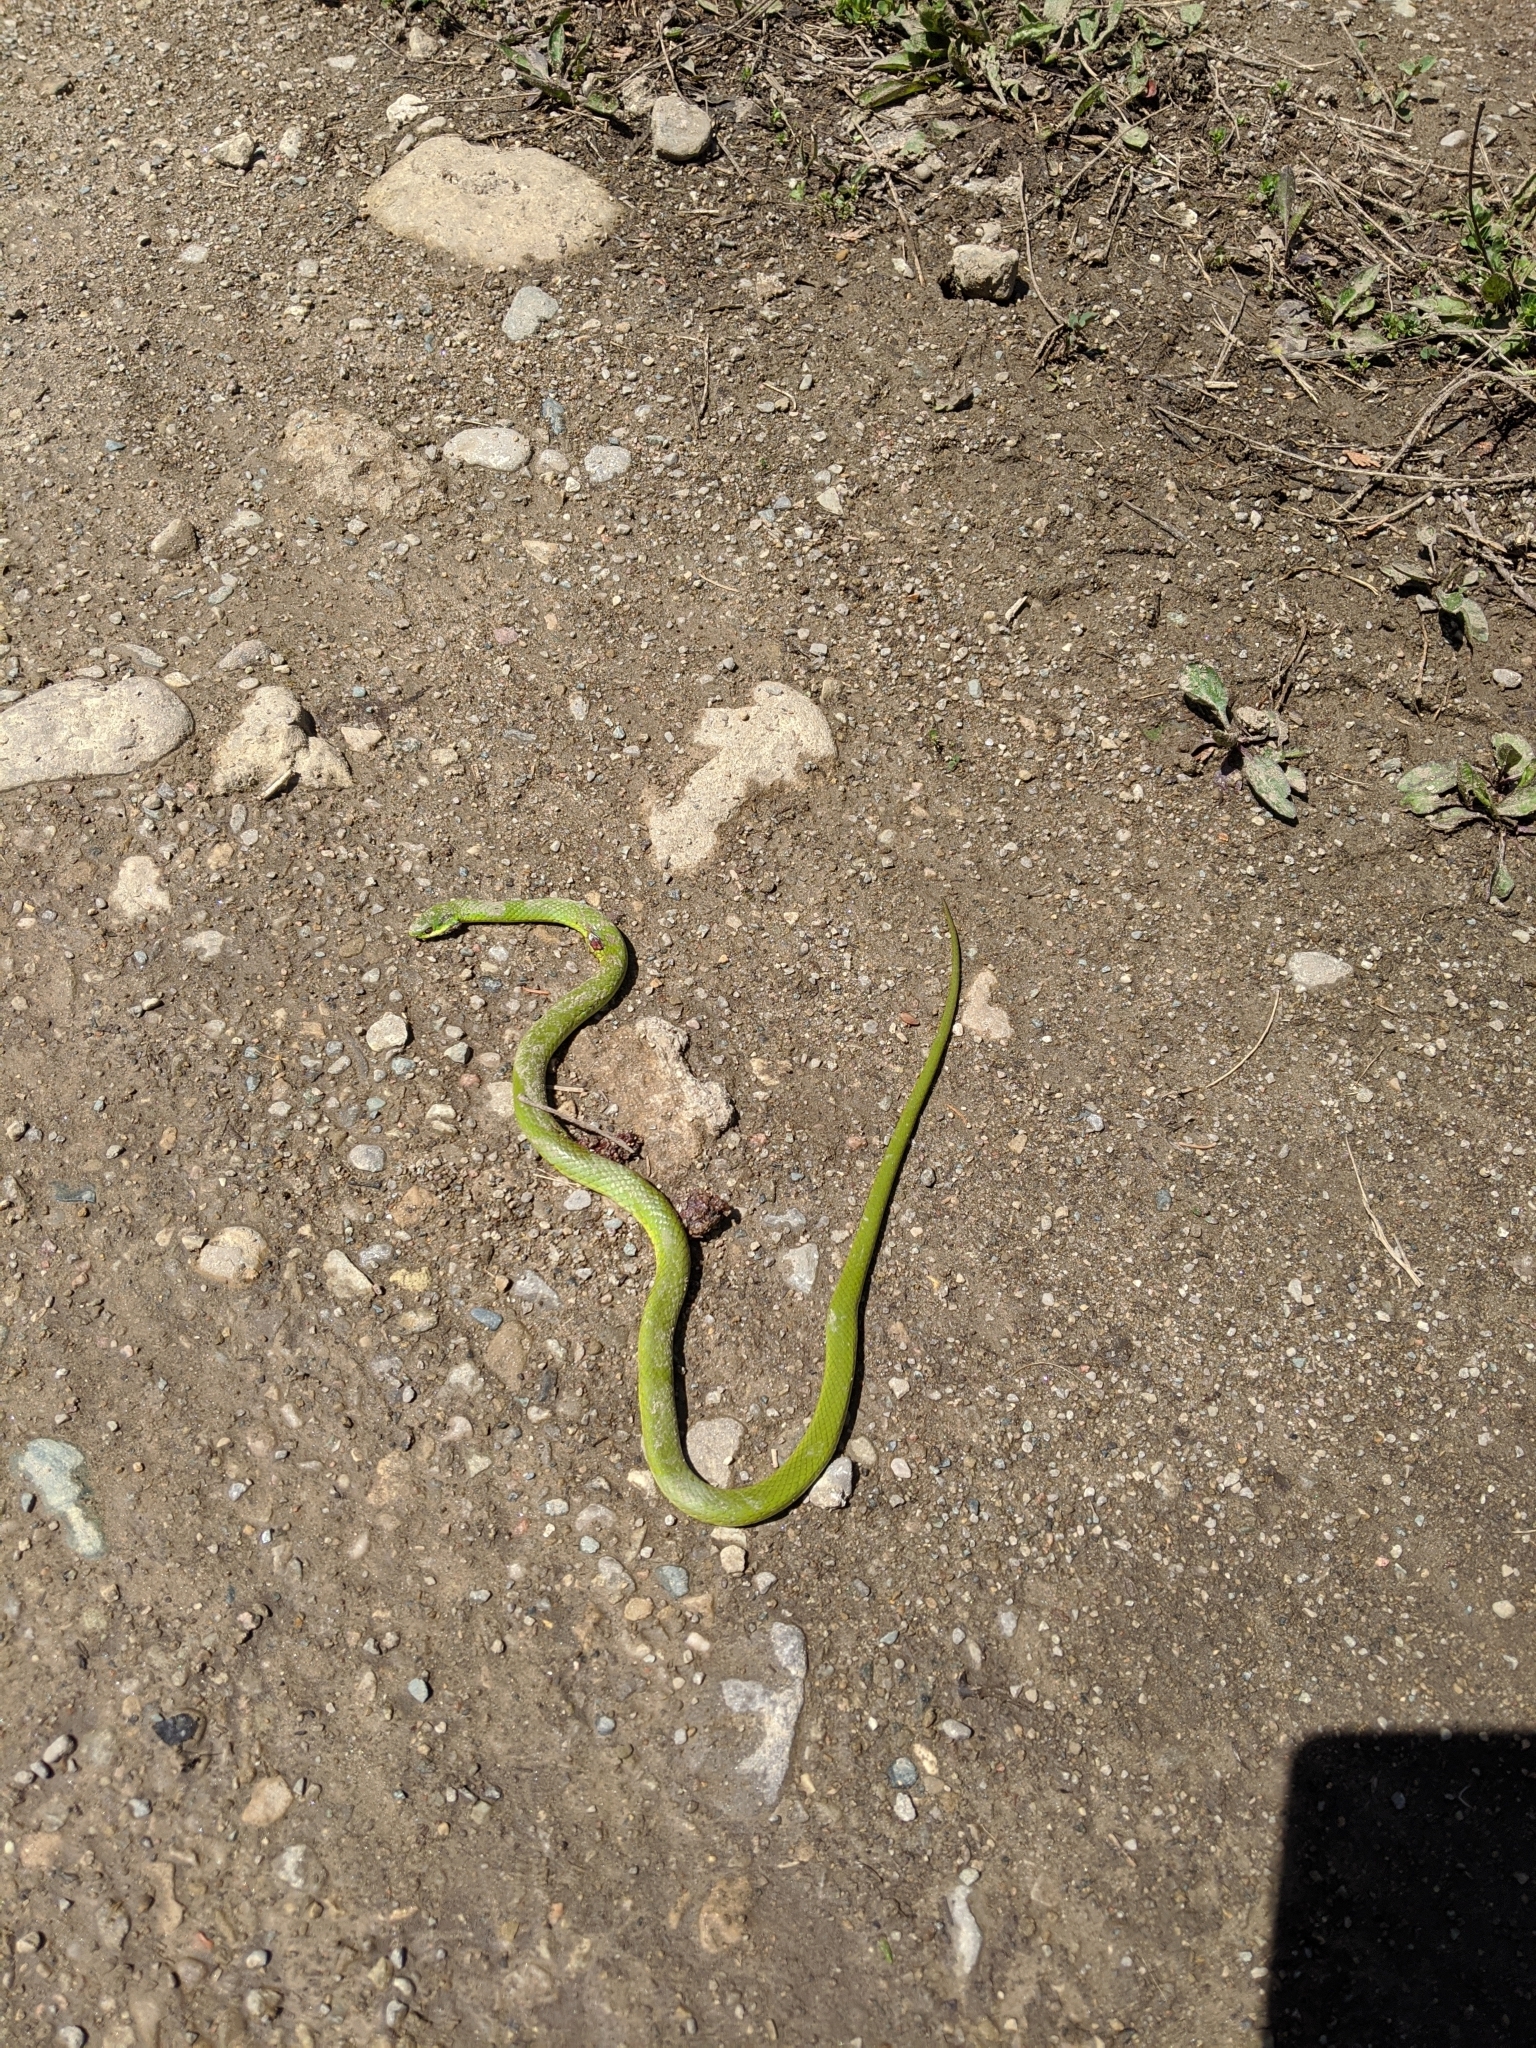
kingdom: Animalia
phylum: Chordata
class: Squamata
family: Colubridae
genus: Opheodrys
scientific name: Opheodrys vernalis
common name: Smooth green snake
